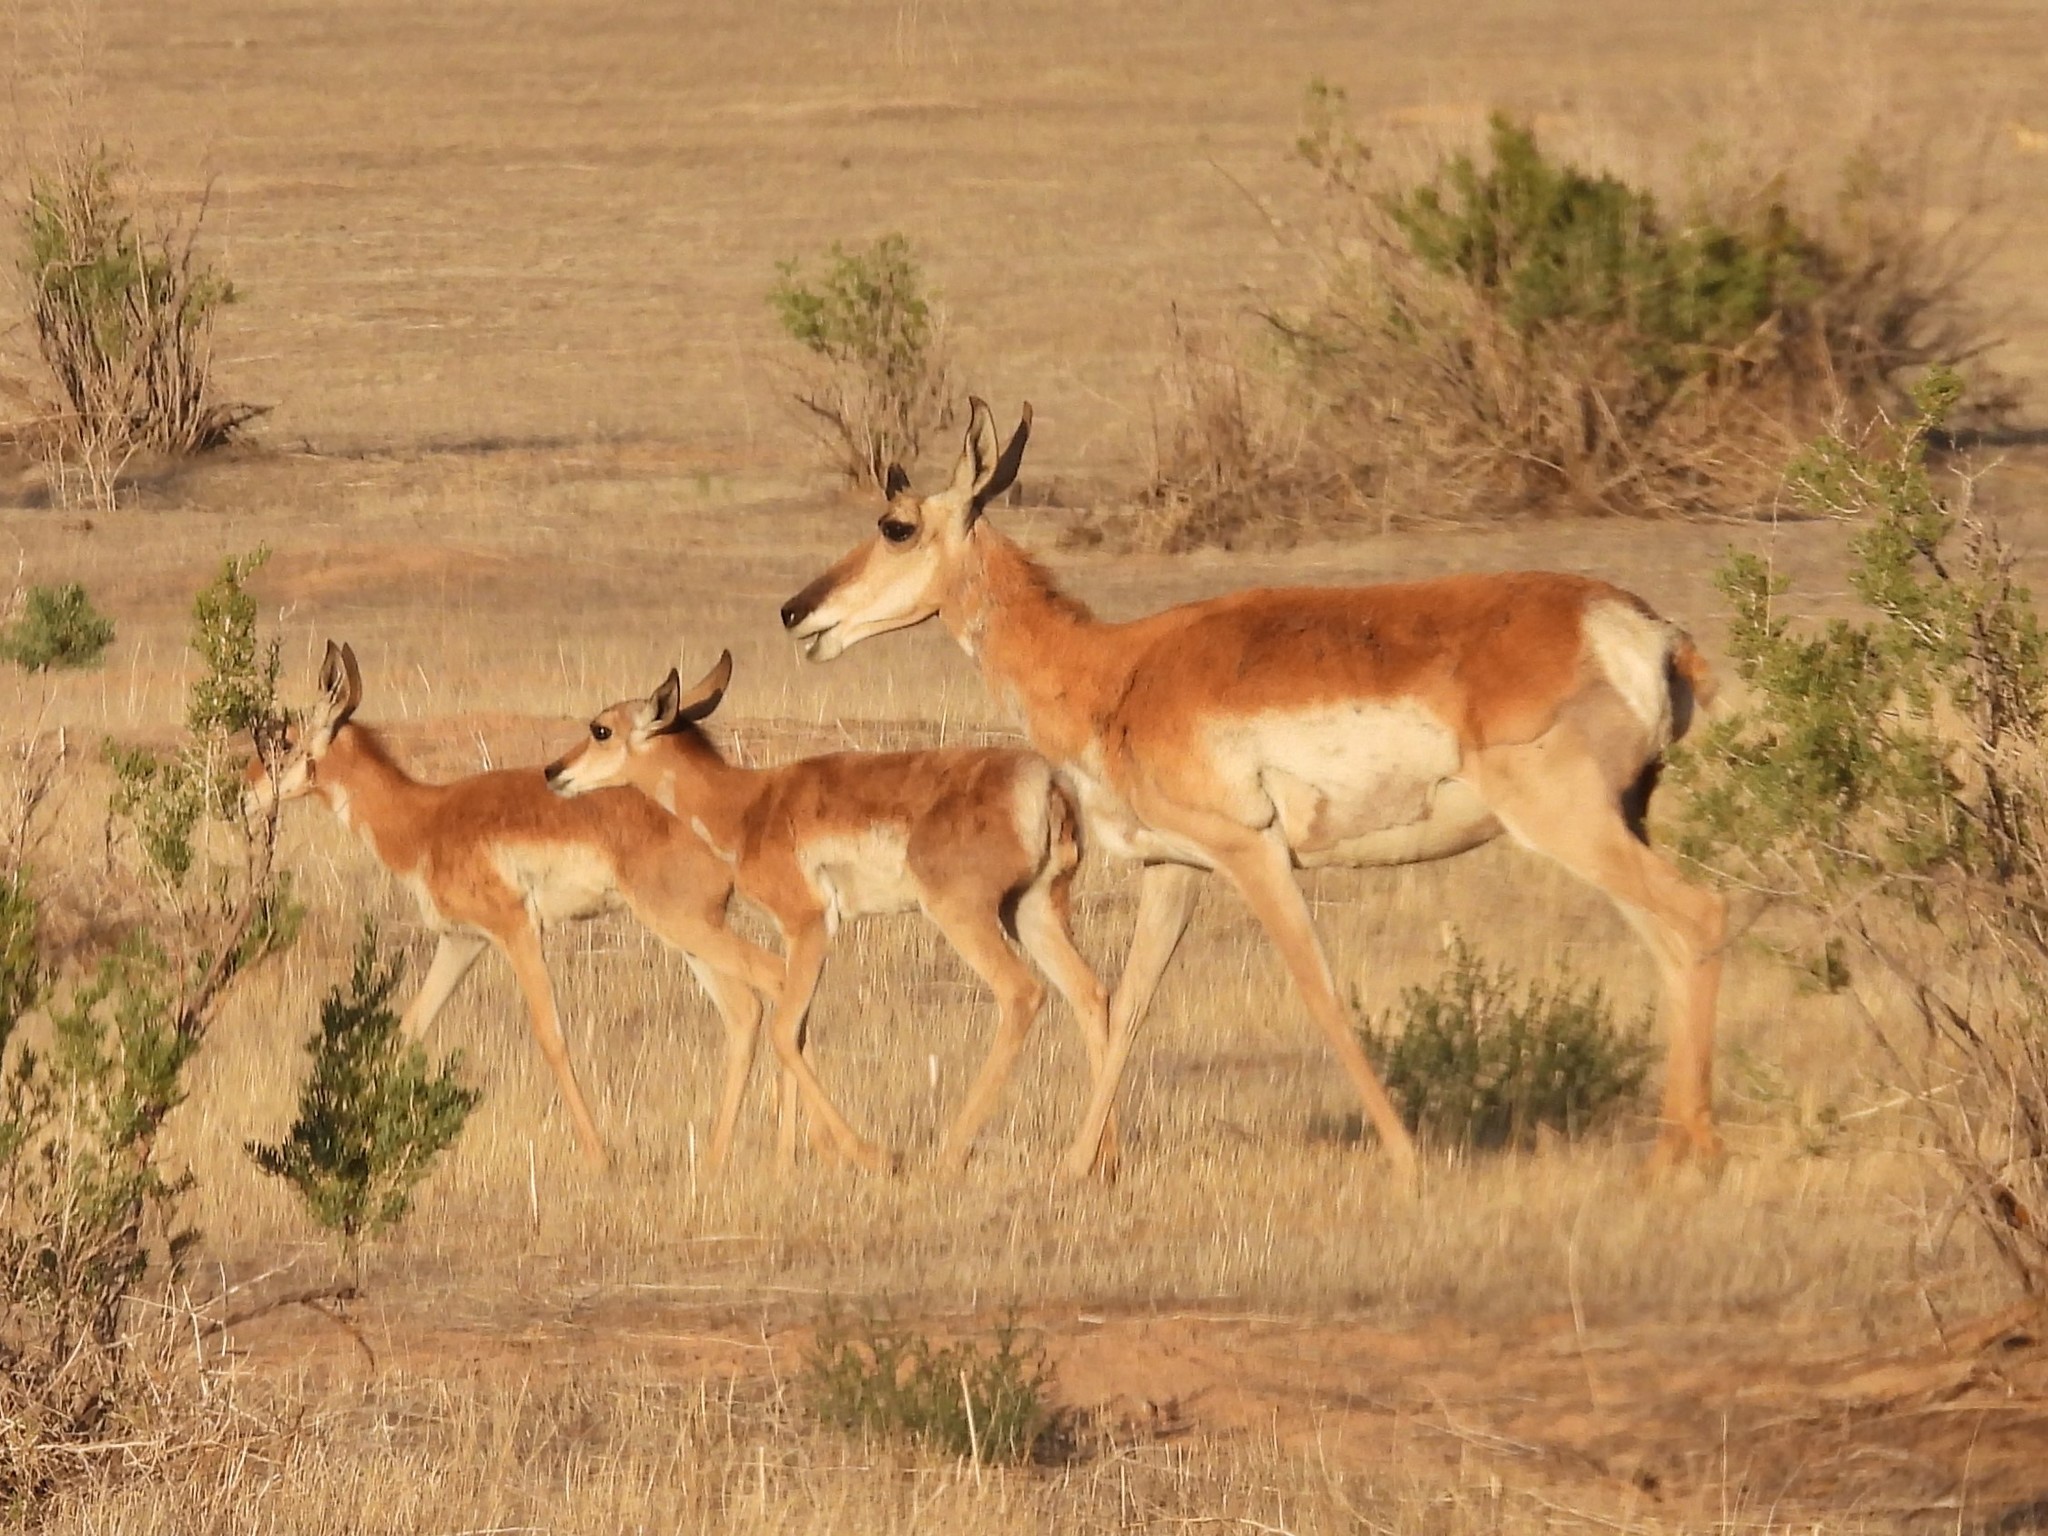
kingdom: Animalia
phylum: Chordata
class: Mammalia
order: Artiodactyla
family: Antilocapridae
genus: Antilocapra
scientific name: Antilocapra americana
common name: Pronghorn
